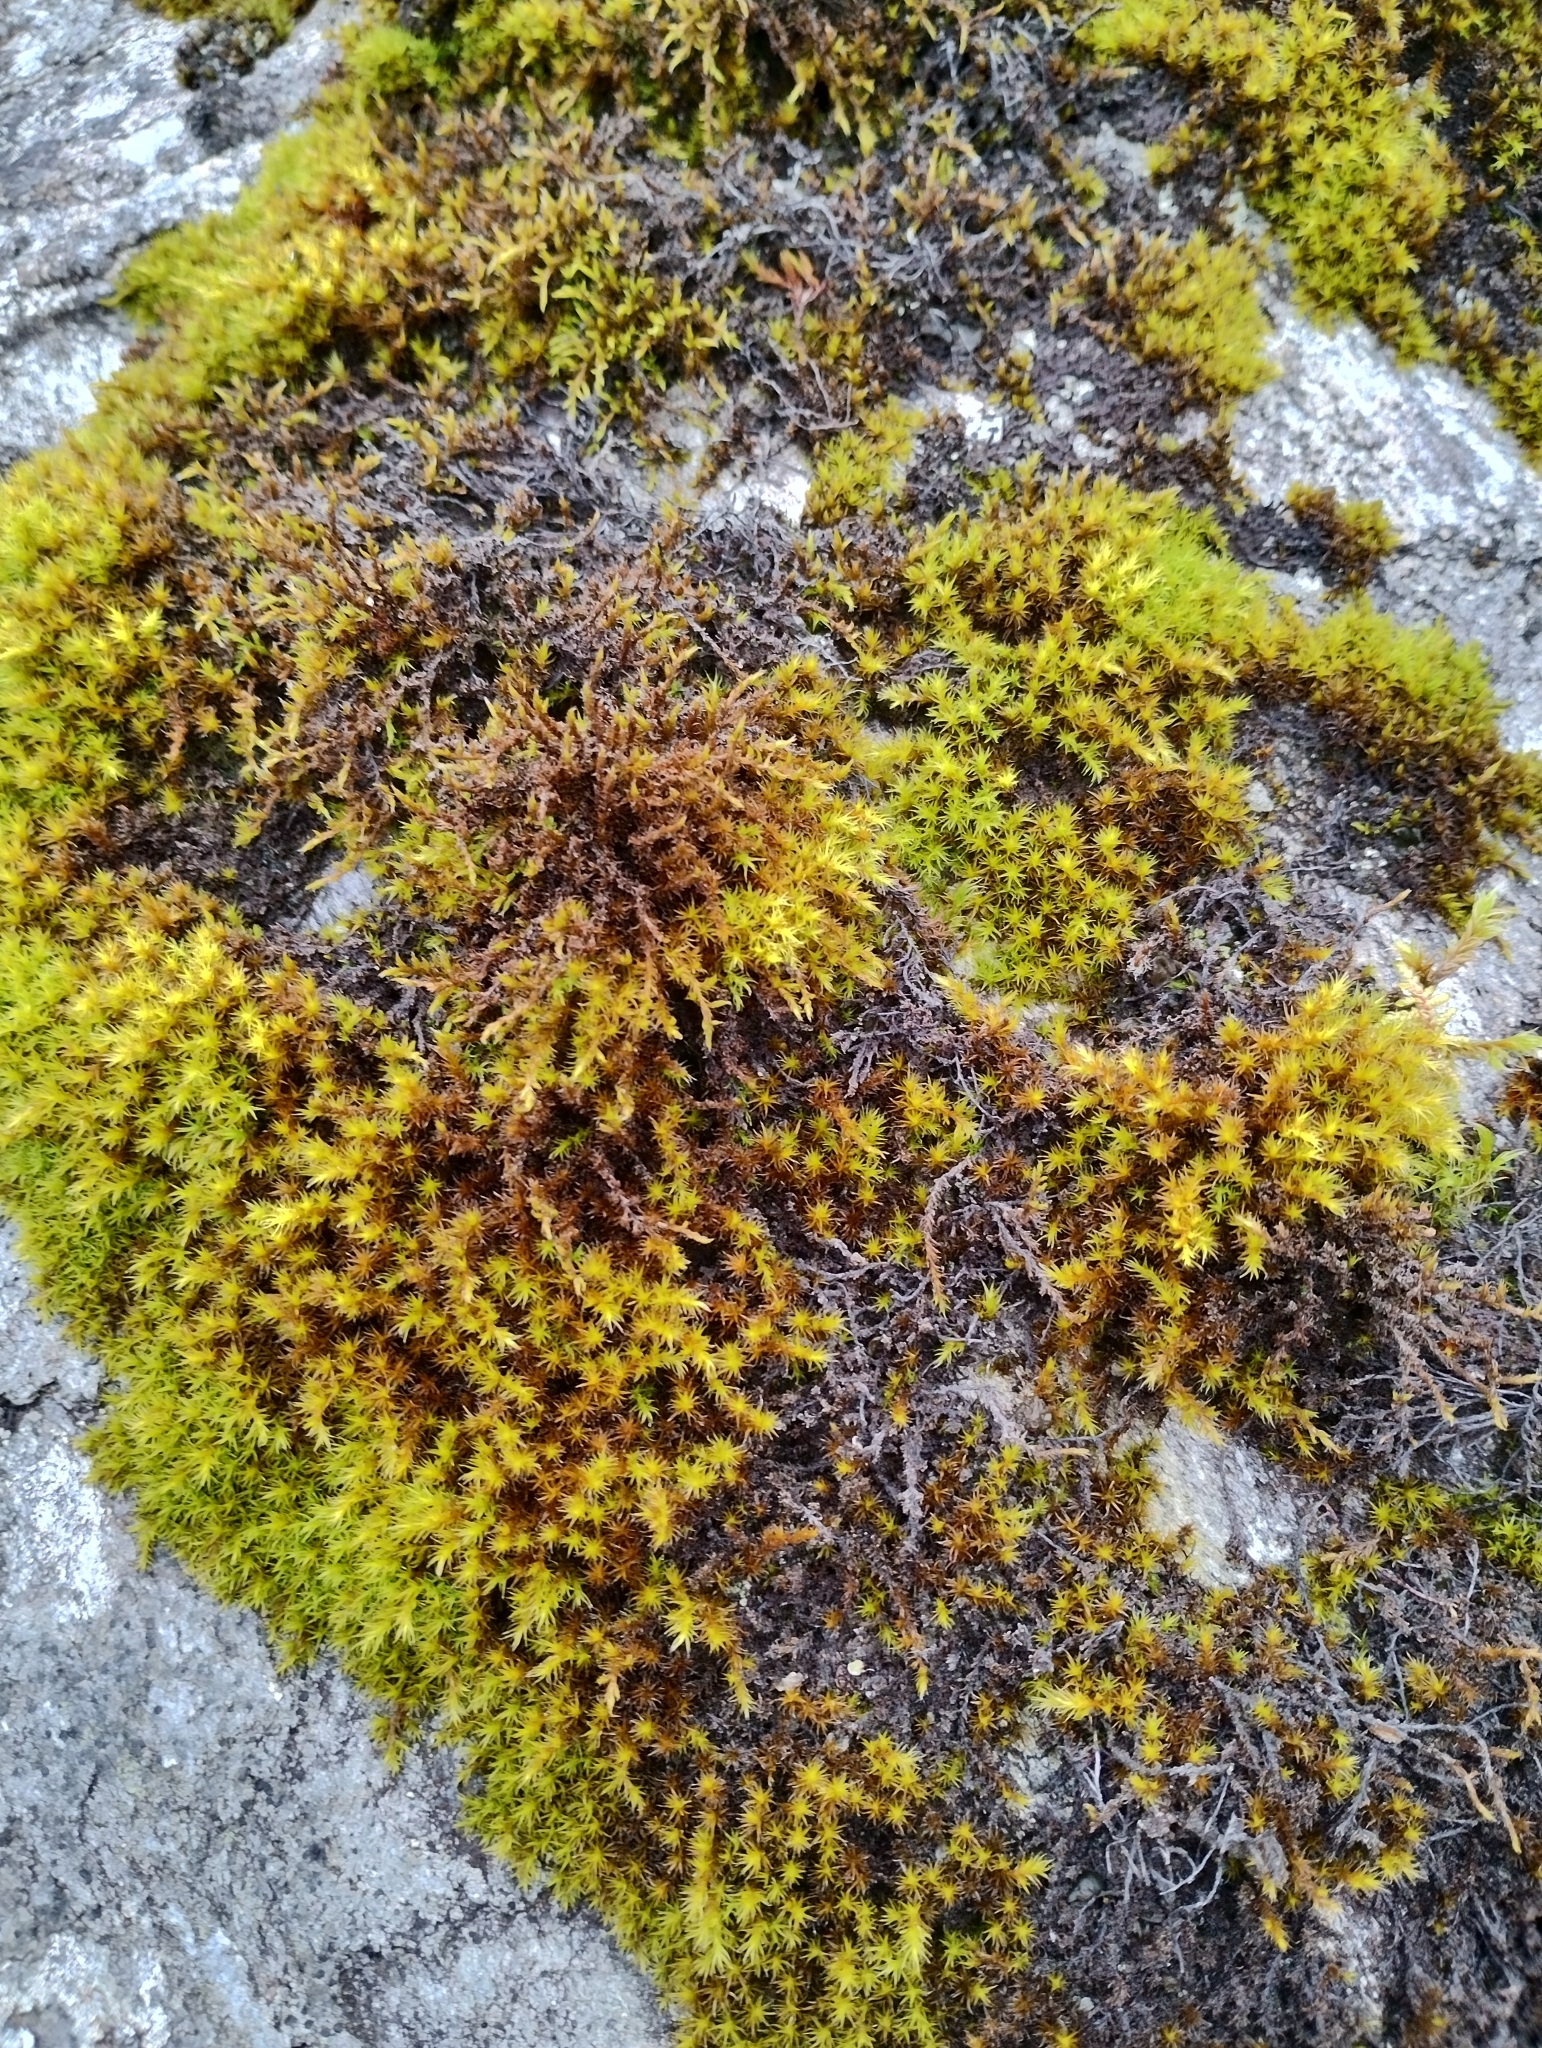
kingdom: Plantae
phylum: Bryophyta
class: Bryopsida
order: Grimmiales
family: Grimmiaceae
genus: Bucklandiella
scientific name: Bucklandiella himalayana
